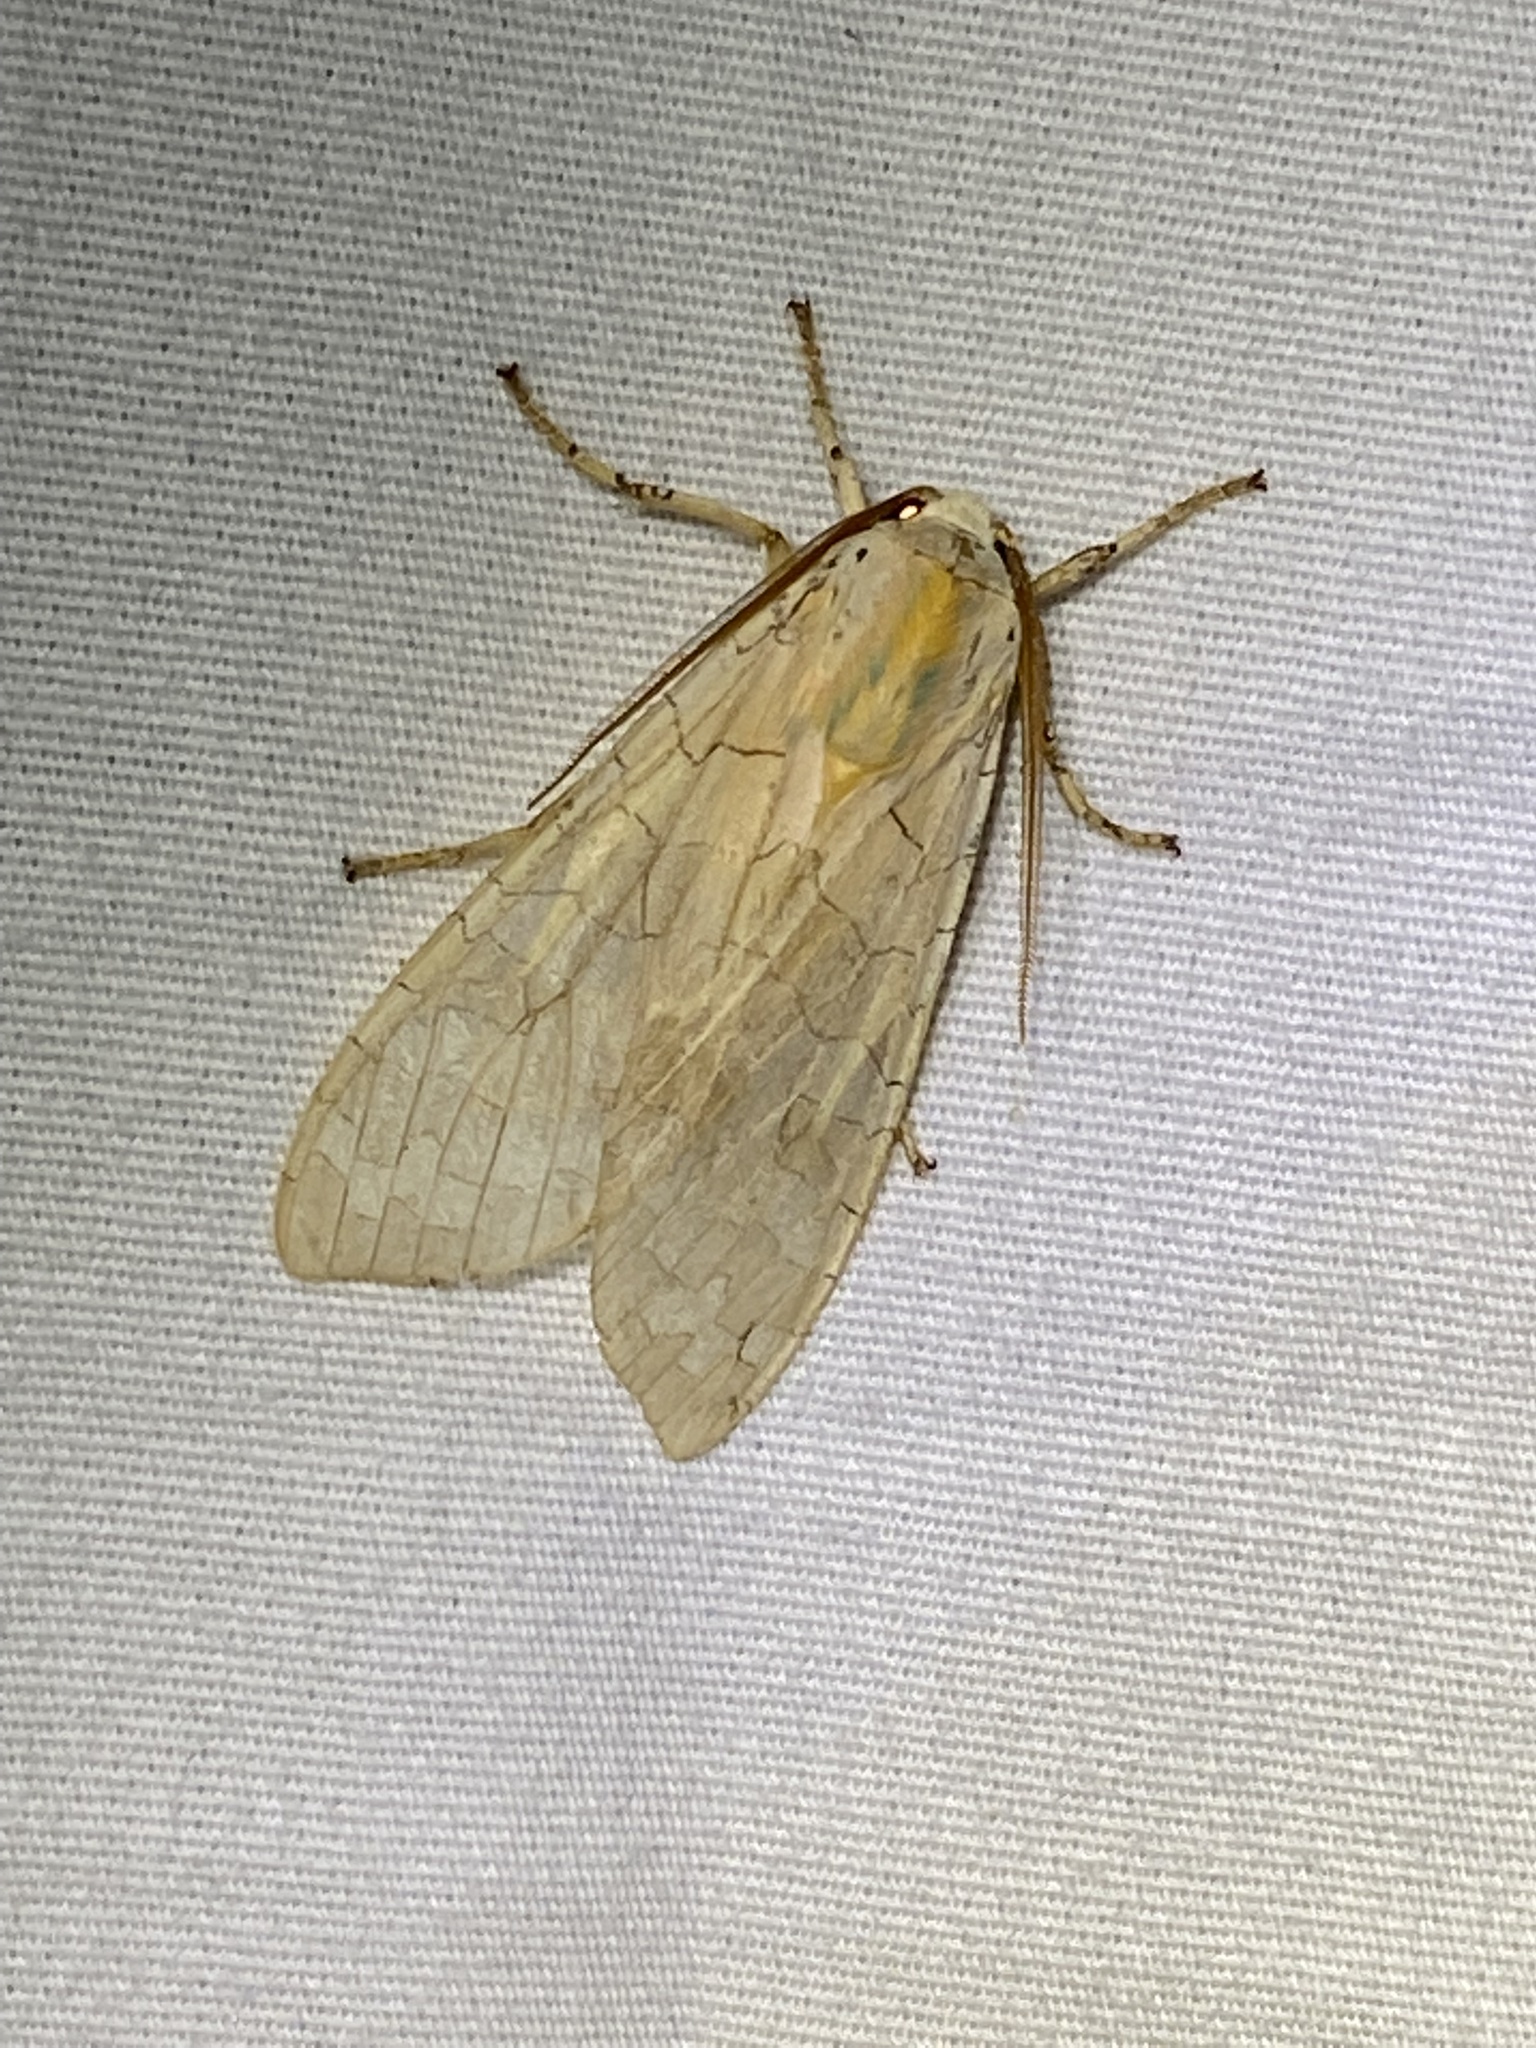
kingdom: Animalia
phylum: Arthropoda
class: Insecta
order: Lepidoptera
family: Erebidae
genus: Halysidota
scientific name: Halysidota
